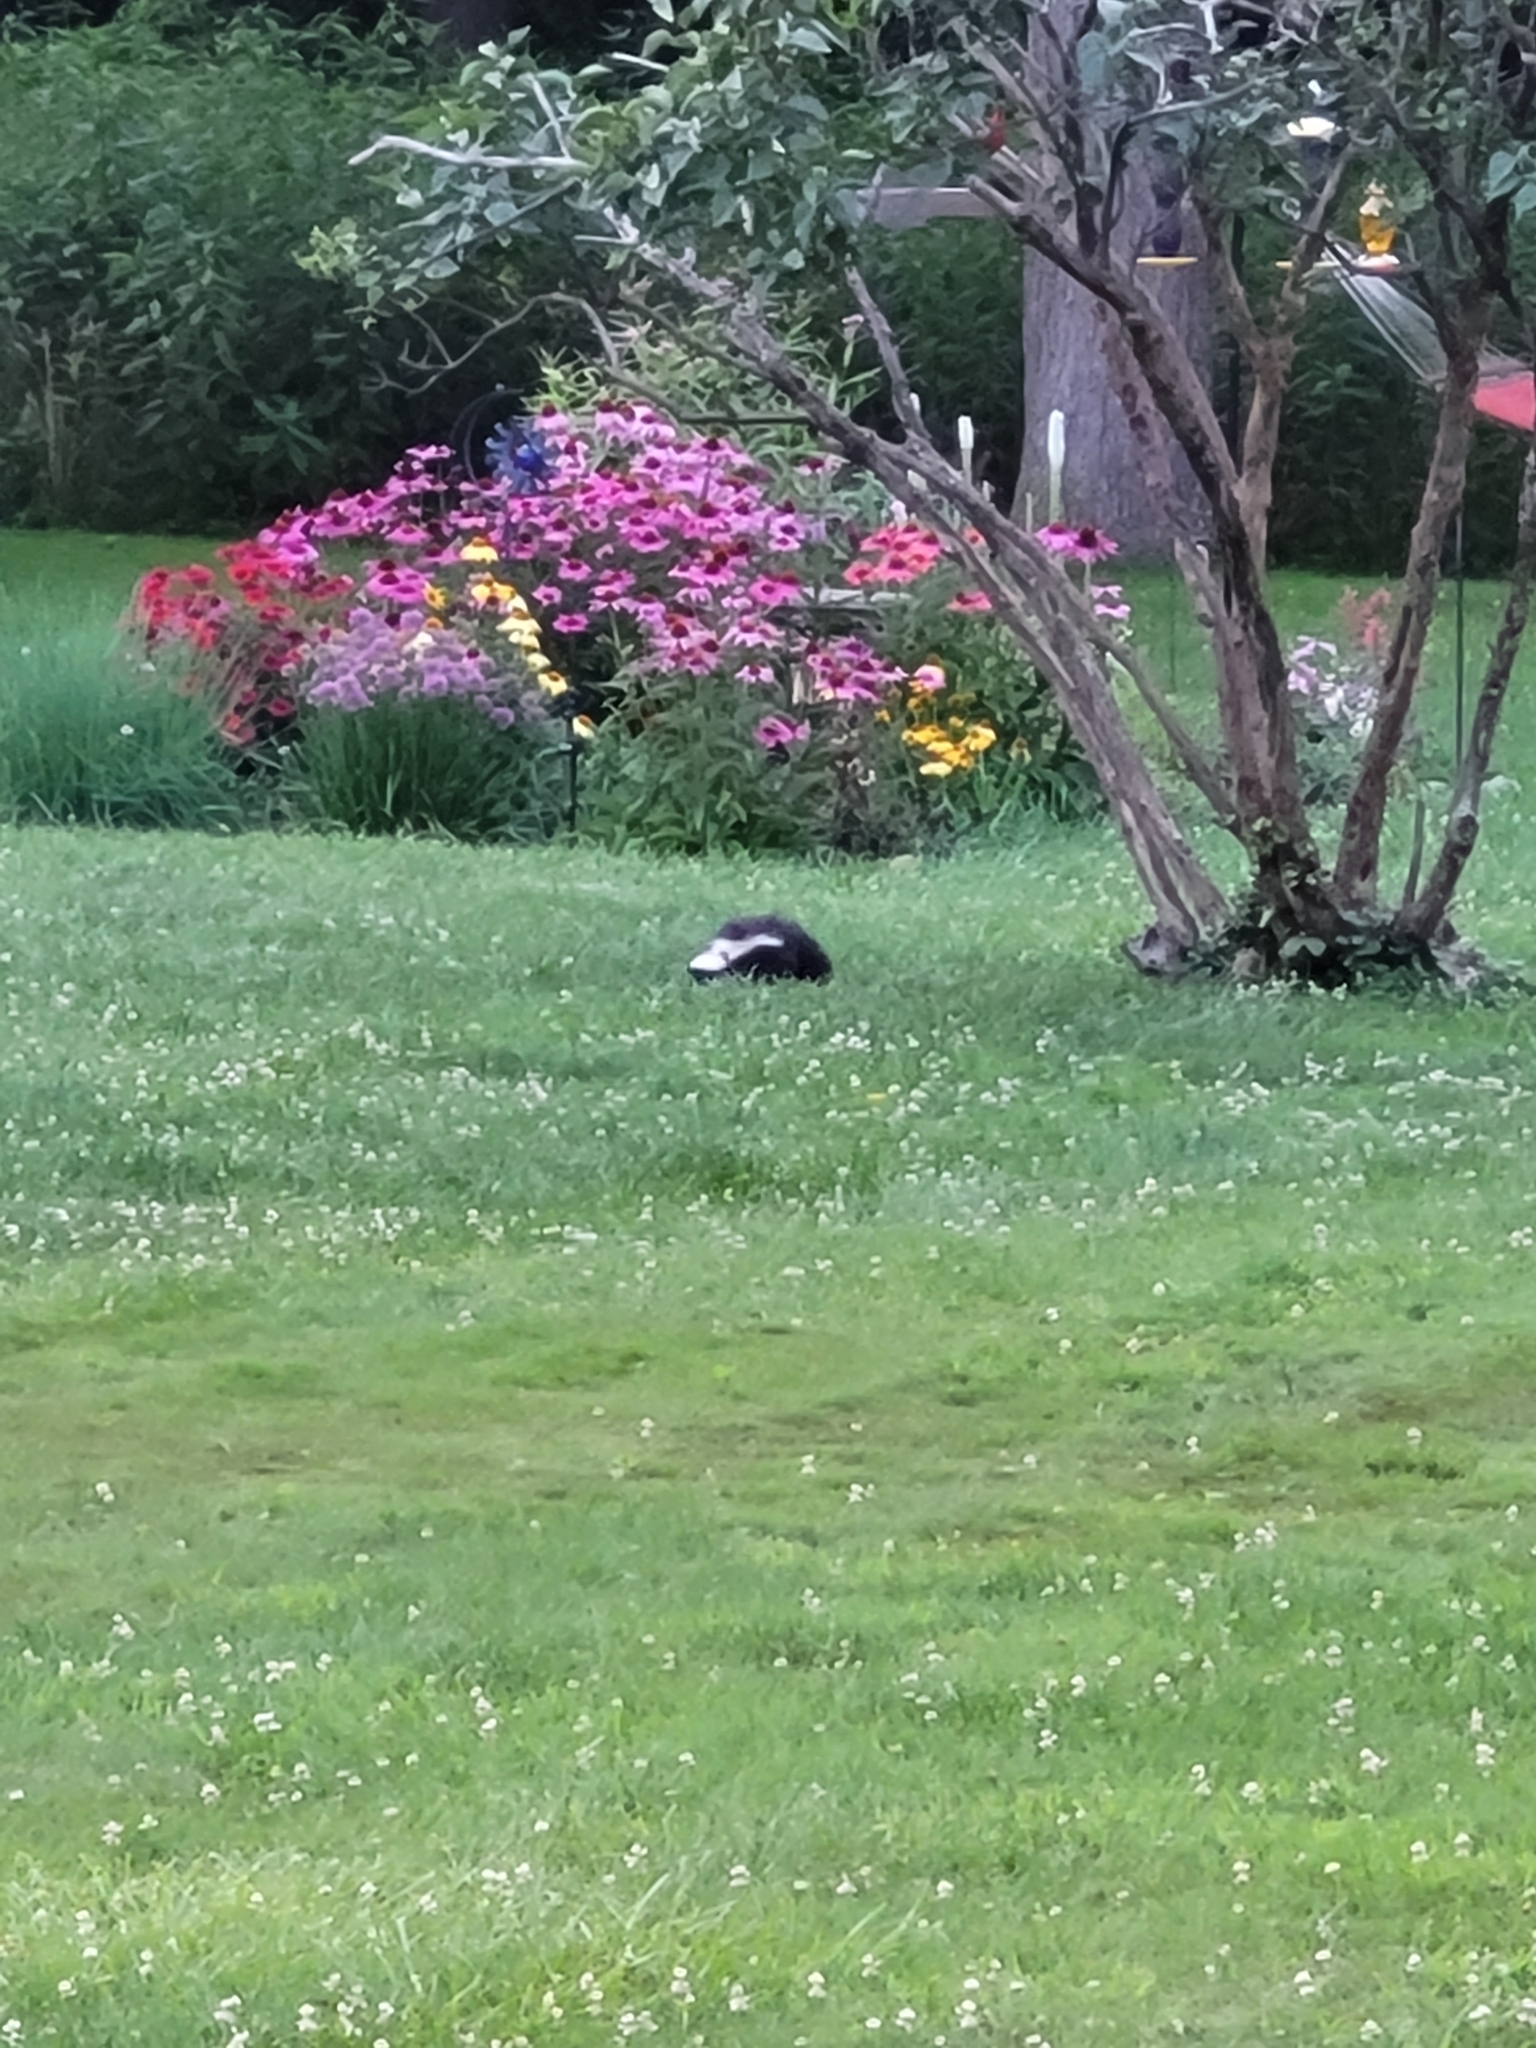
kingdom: Animalia
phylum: Chordata
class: Mammalia
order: Carnivora
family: Mephitidae
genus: Mephitis
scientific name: Mephitis mephitis
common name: Striped skunk
